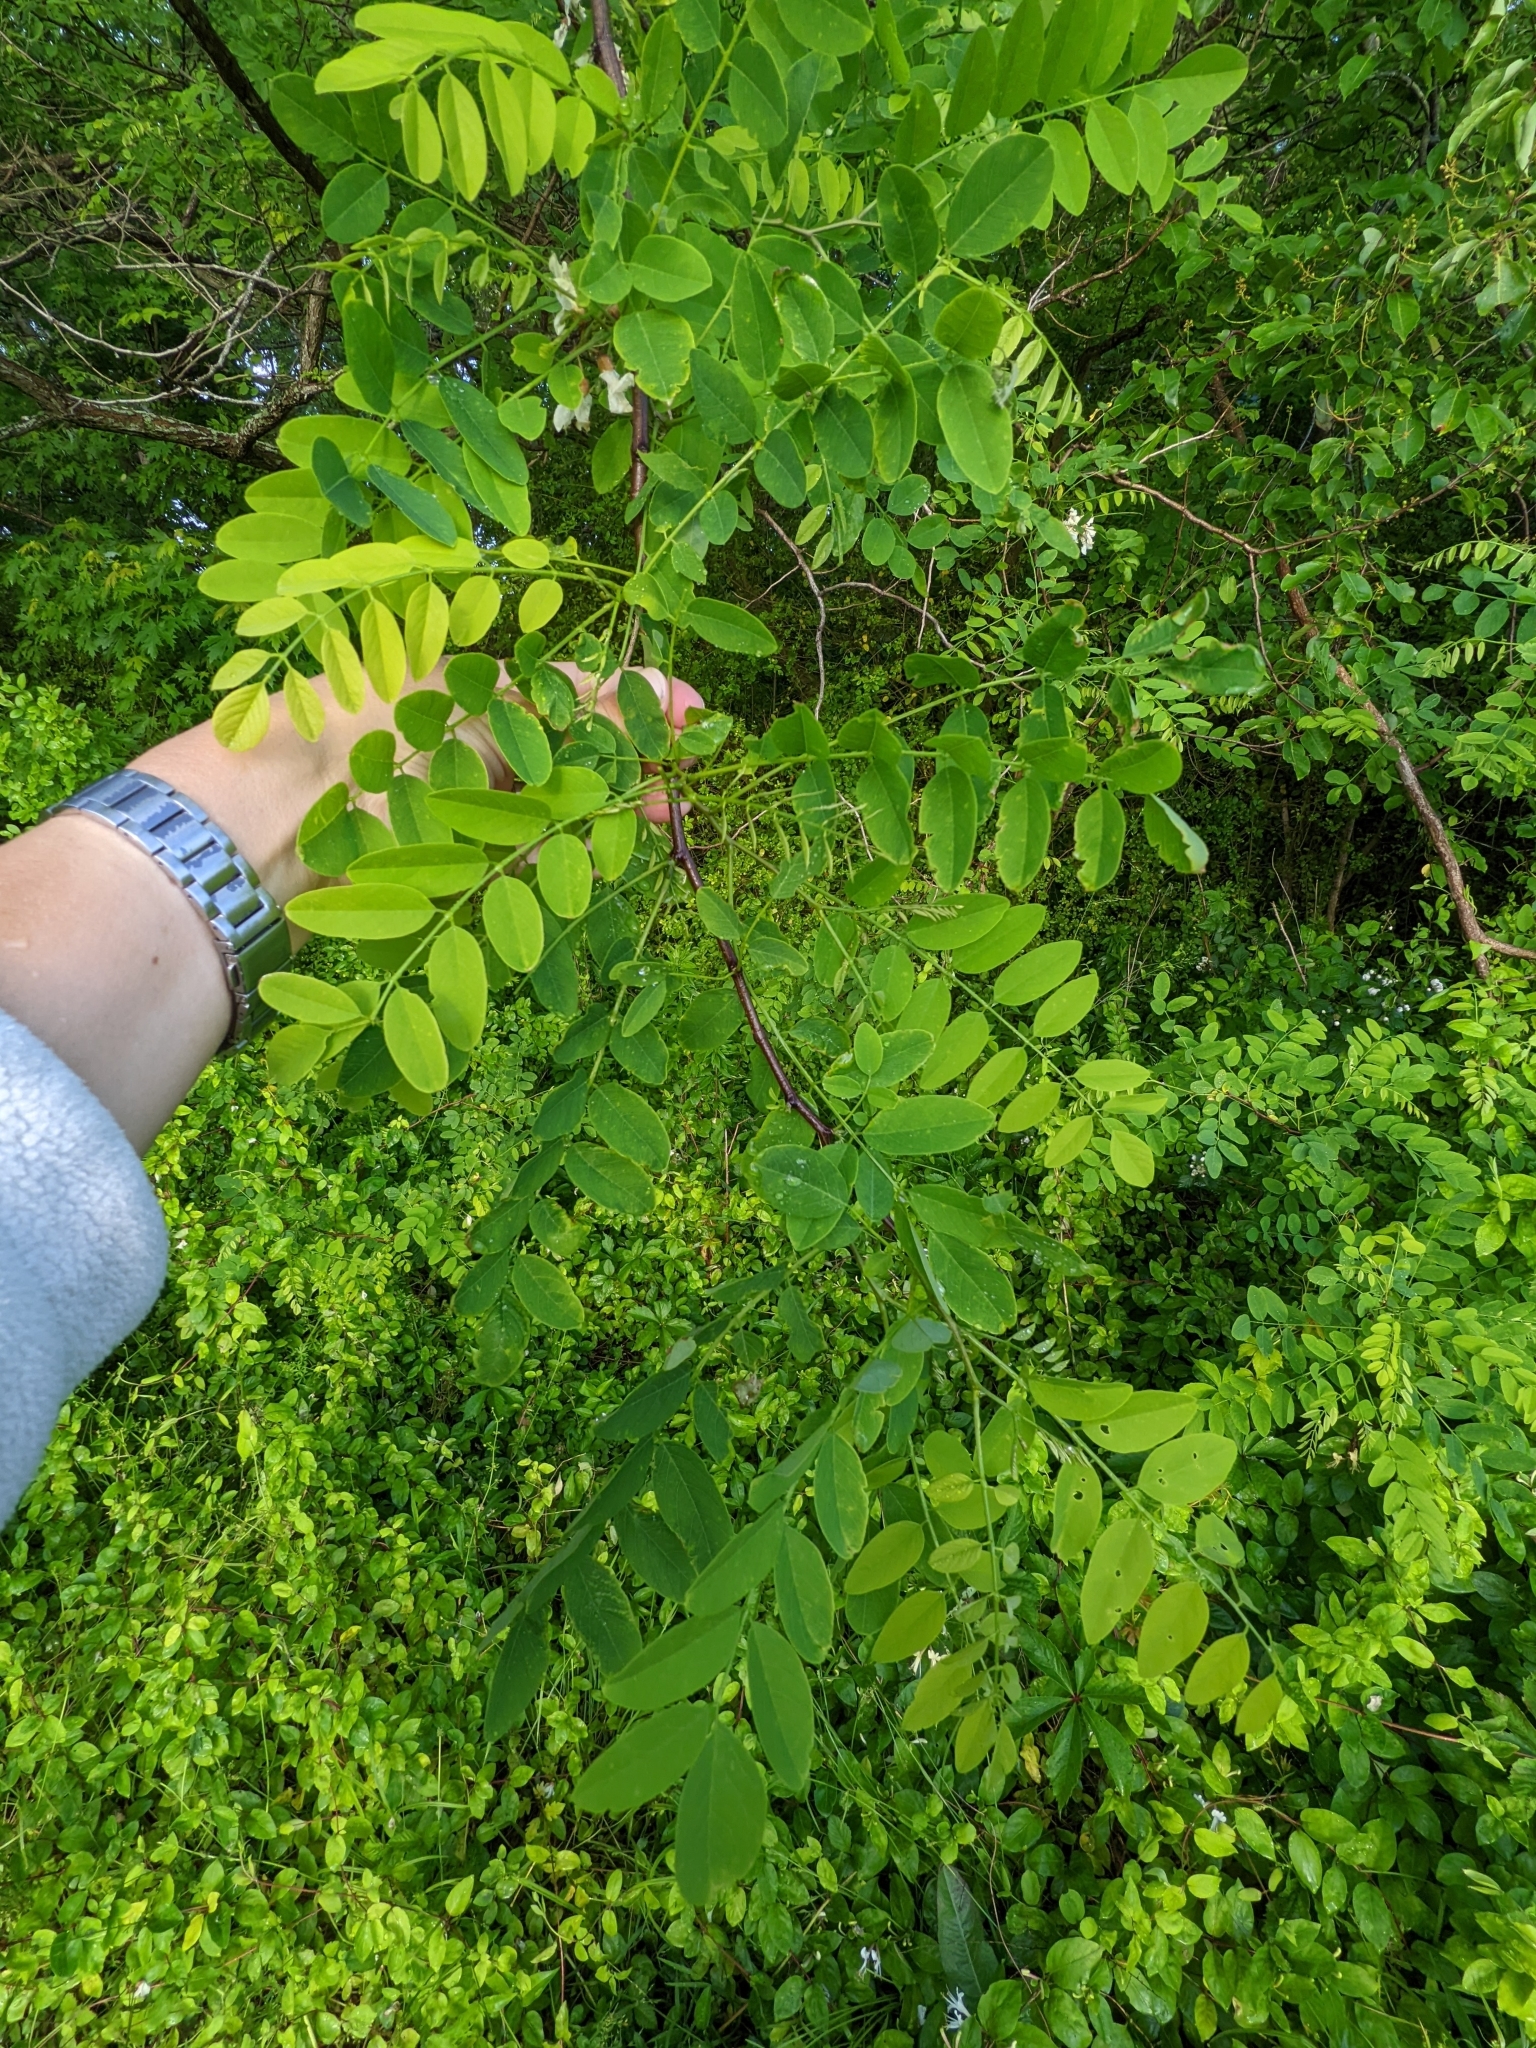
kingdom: Plantae
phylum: Tracheophyta
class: Magnoliopsida
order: Fabales
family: Fabaceae
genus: Robinia
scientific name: Robinia pseudoacacia
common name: Black locust
